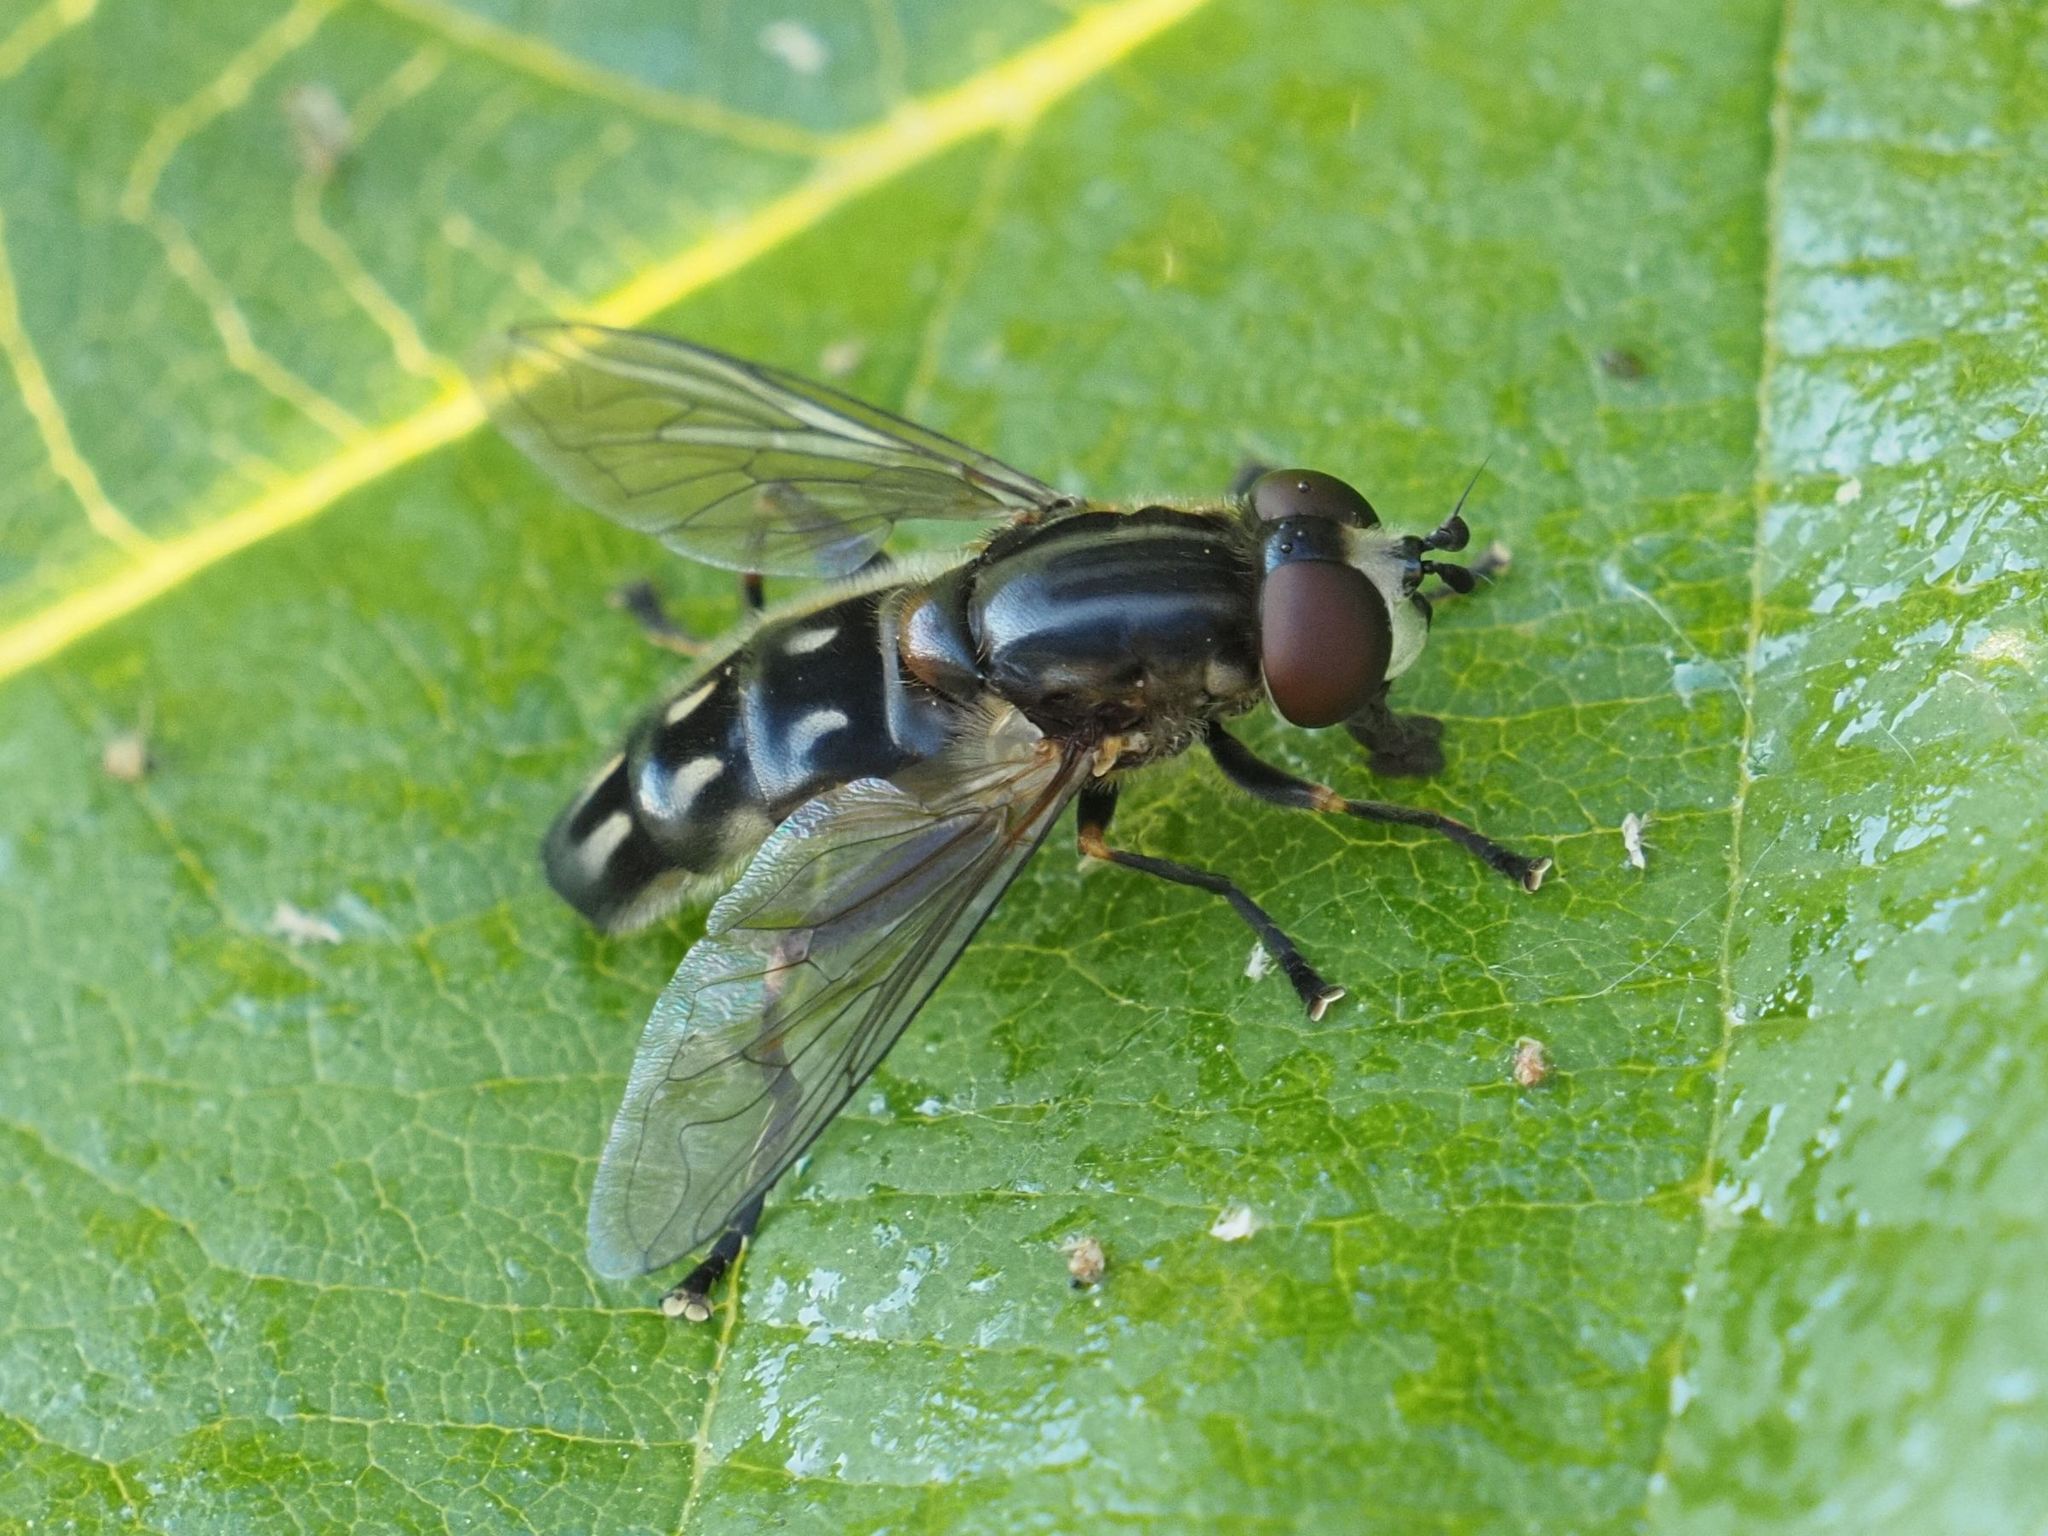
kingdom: Animalia
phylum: Arthropoda
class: Insecta
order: Diptera
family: Syrphidae
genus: Lejops
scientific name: Lejops vittatus
